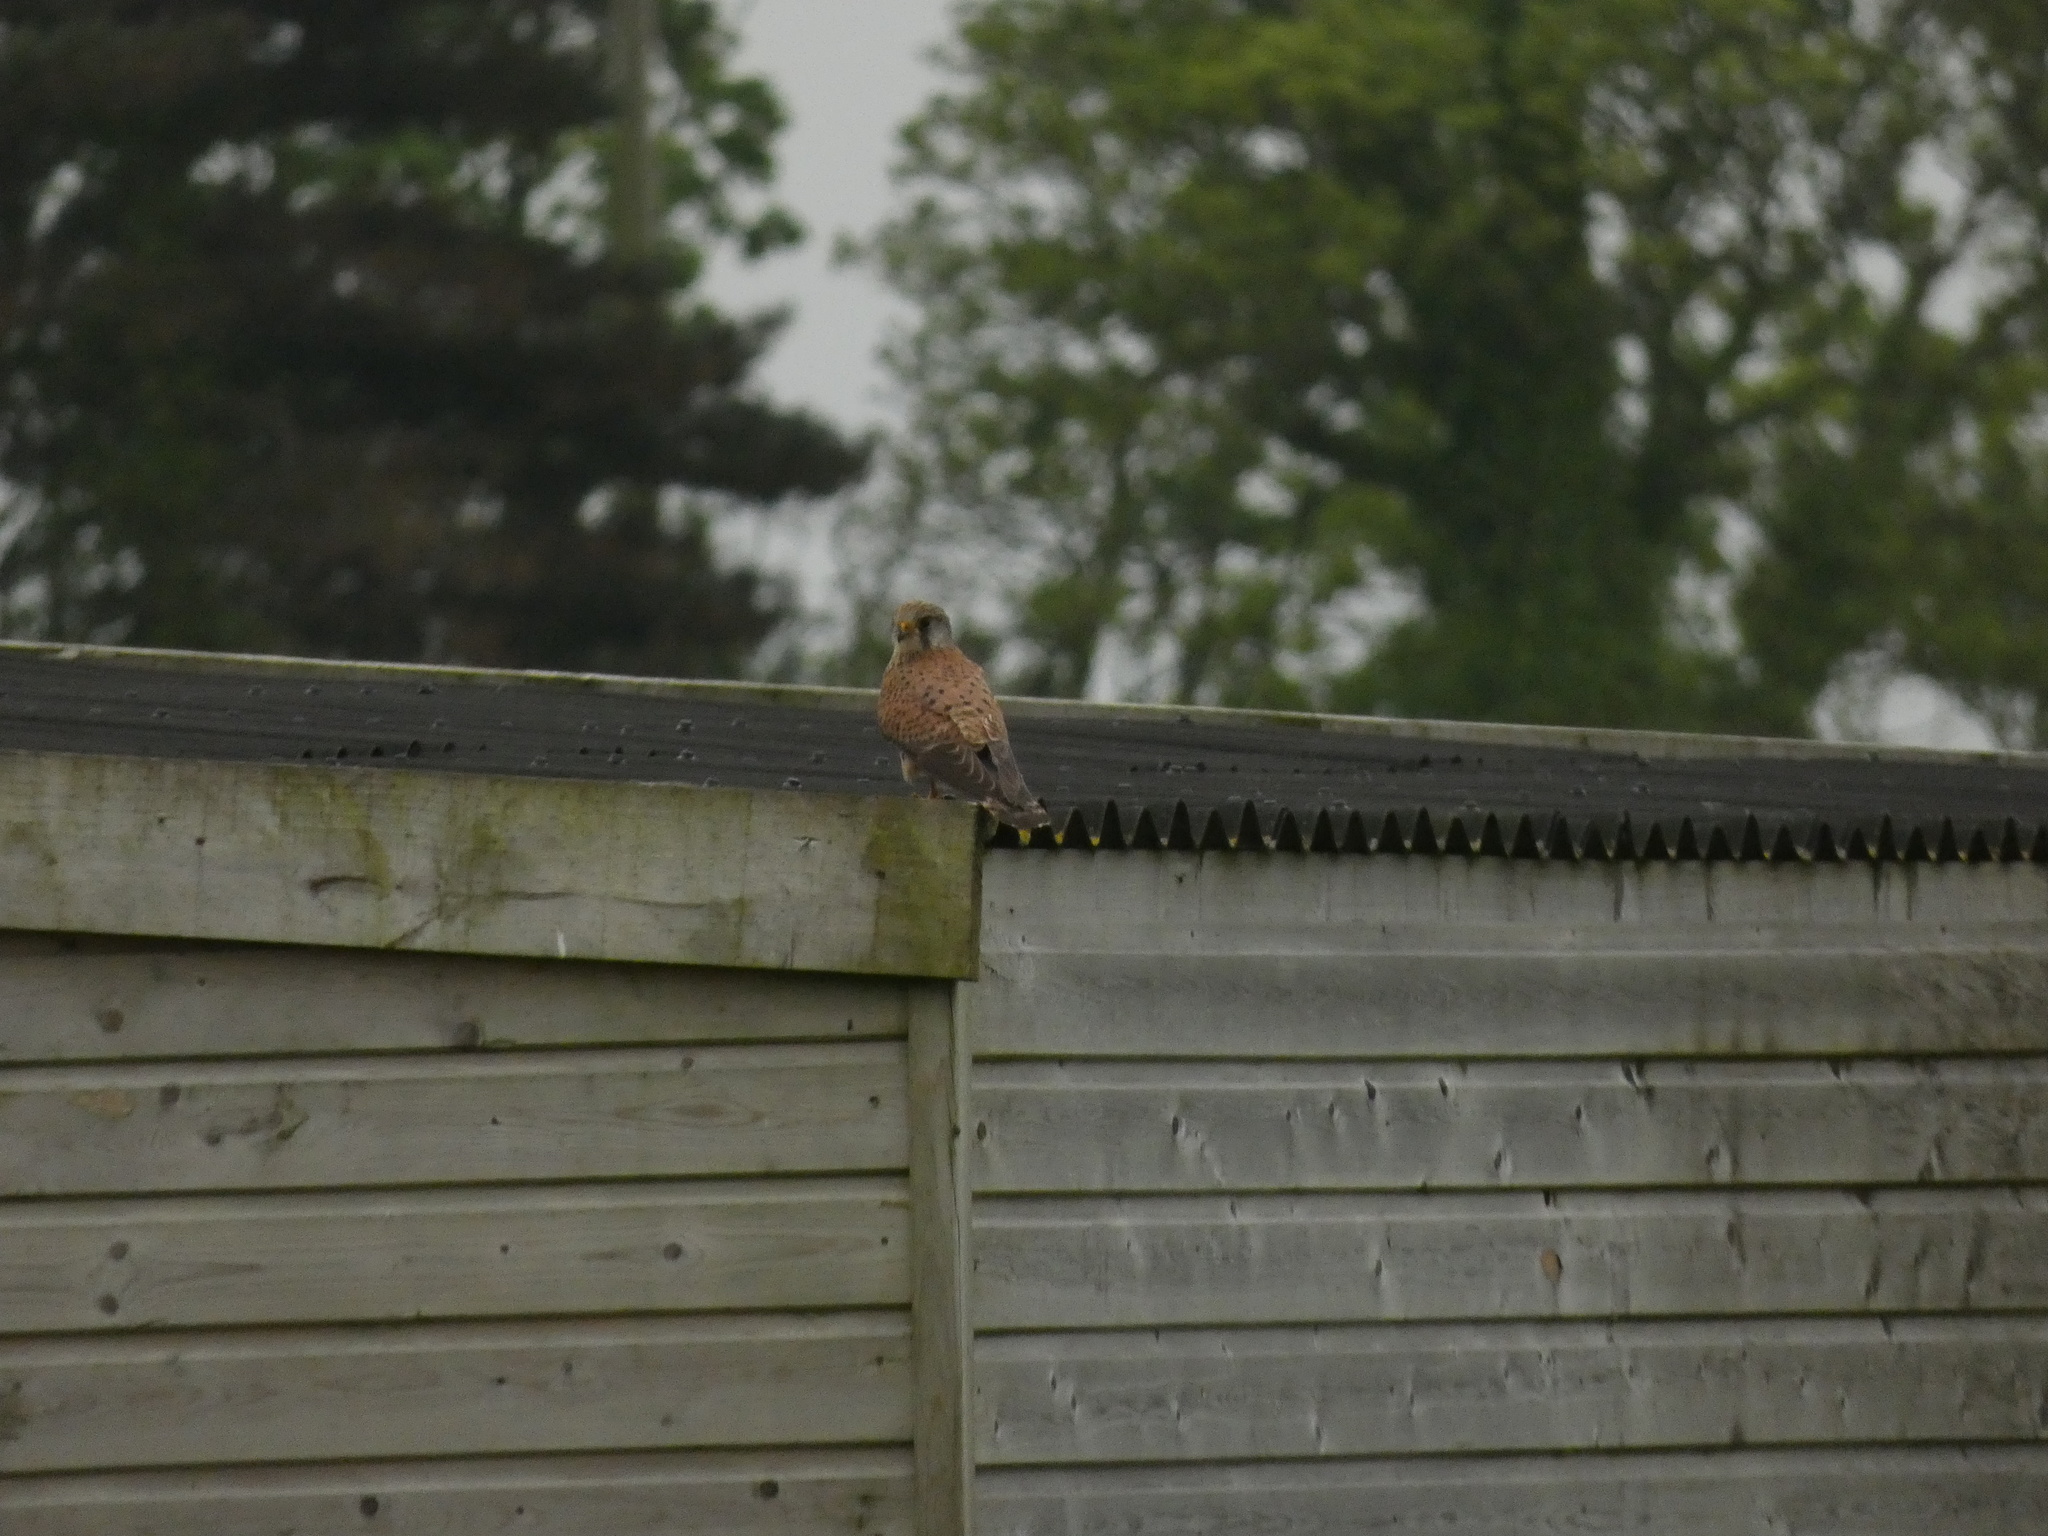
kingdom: Animalia
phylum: Chordata
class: Aves
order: Falconiformes
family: Falconidae
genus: Falco
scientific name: Falco tinnunculus
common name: Common kestrel
